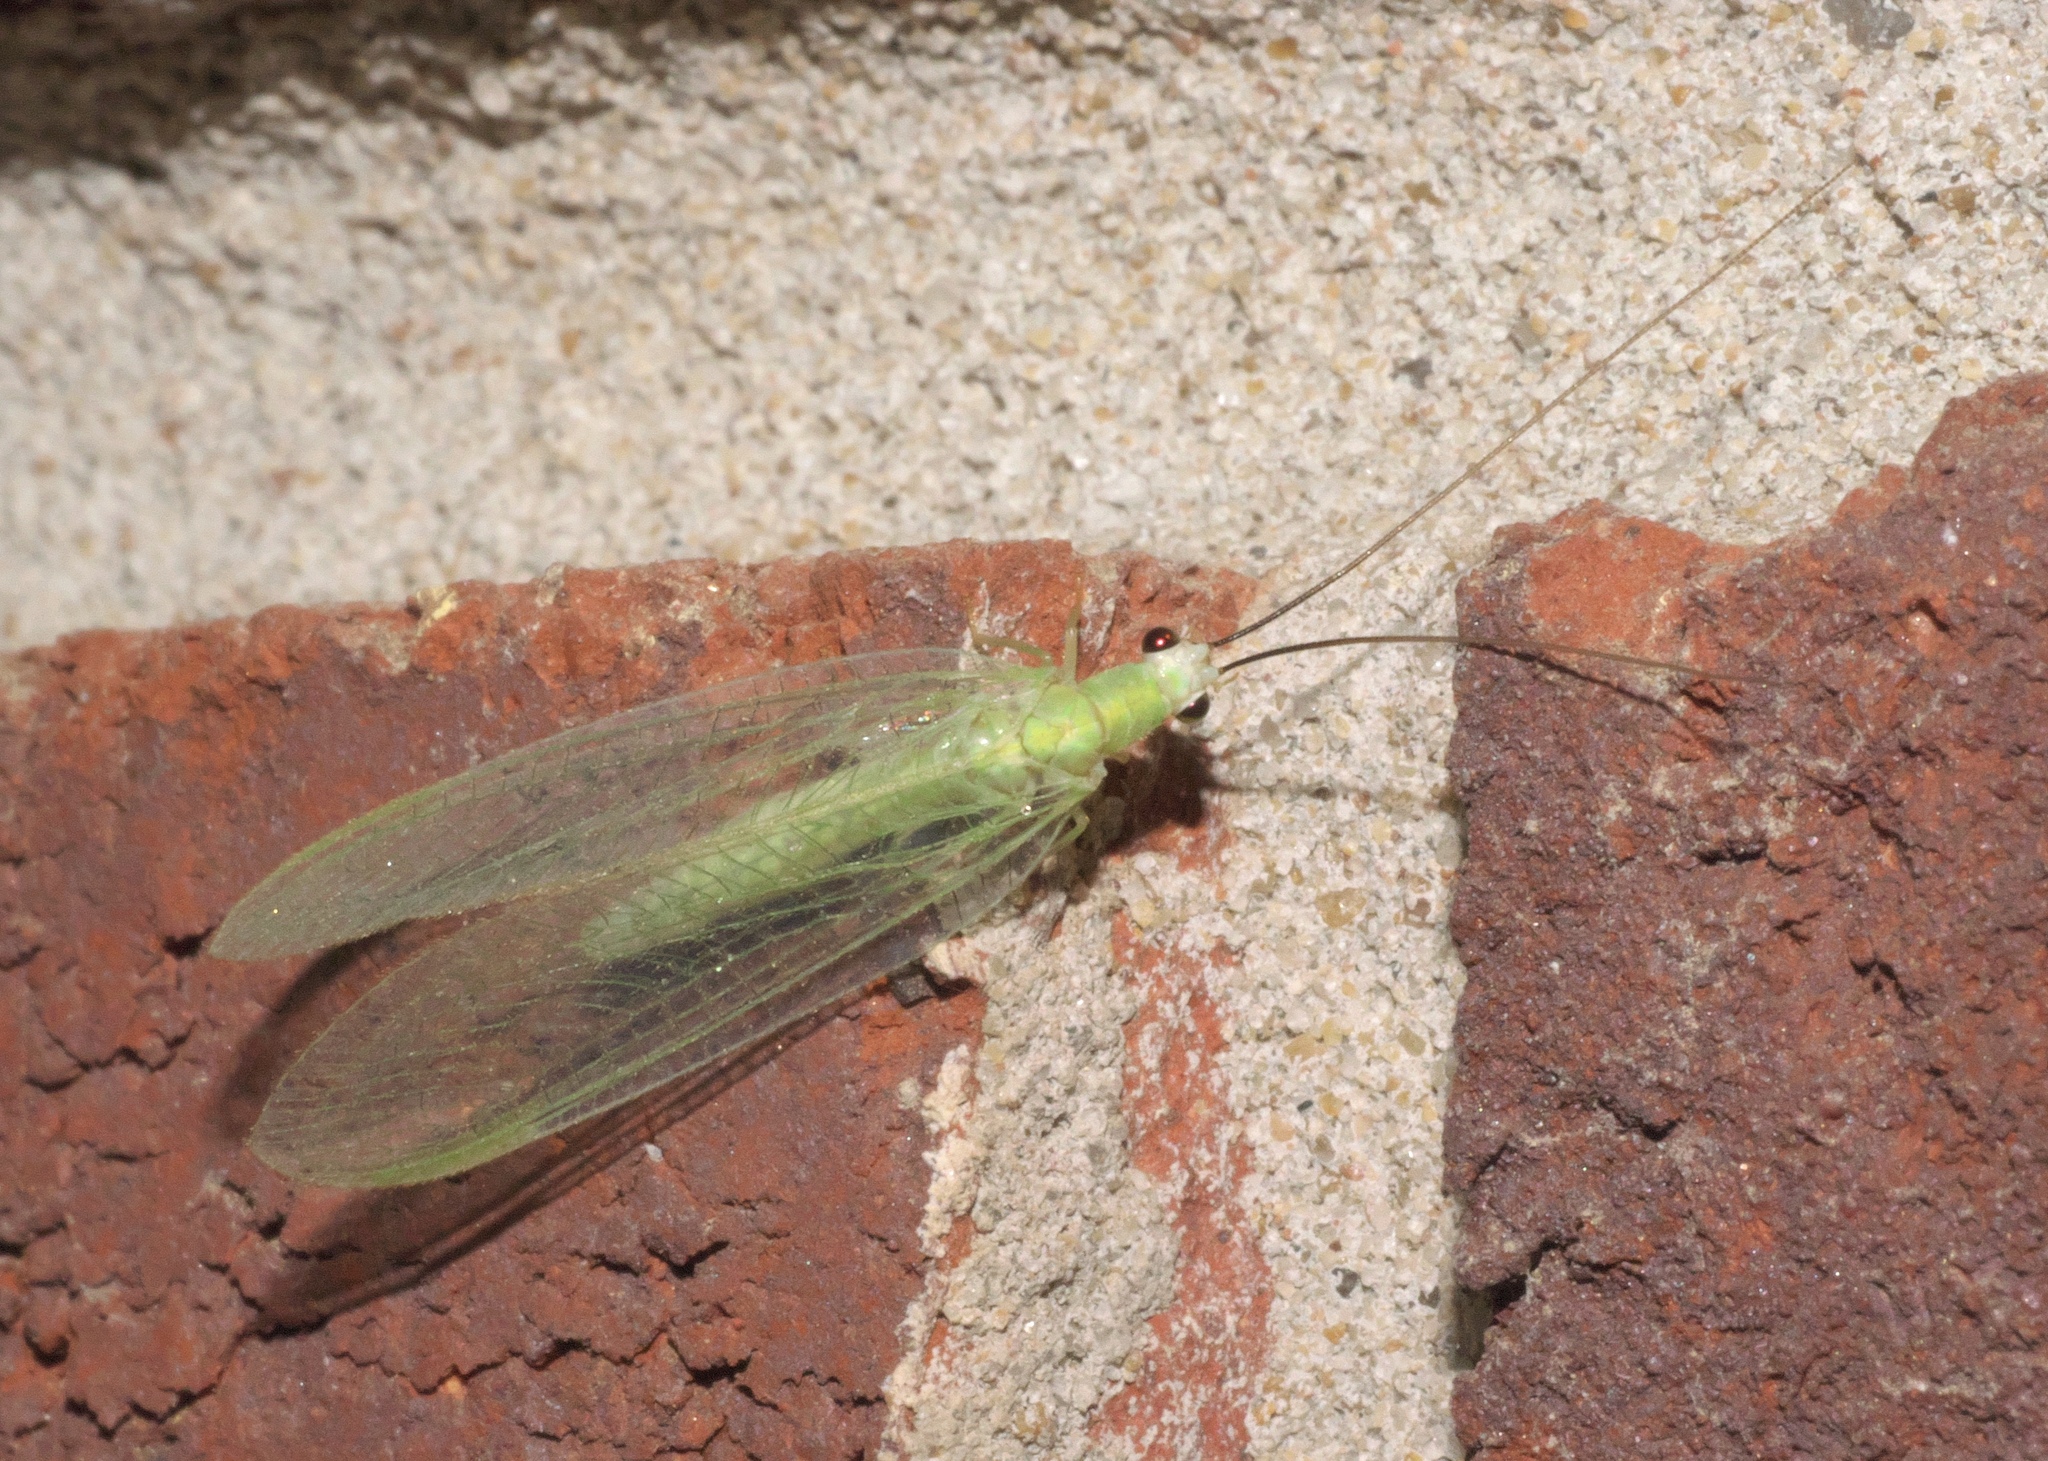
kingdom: Animalia
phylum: Arthropoda
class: Insecta
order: Neuroptera
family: Chrysopidae
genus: Chrysopa
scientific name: Chrysopa nigricornis
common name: Black-horned green lacewing
